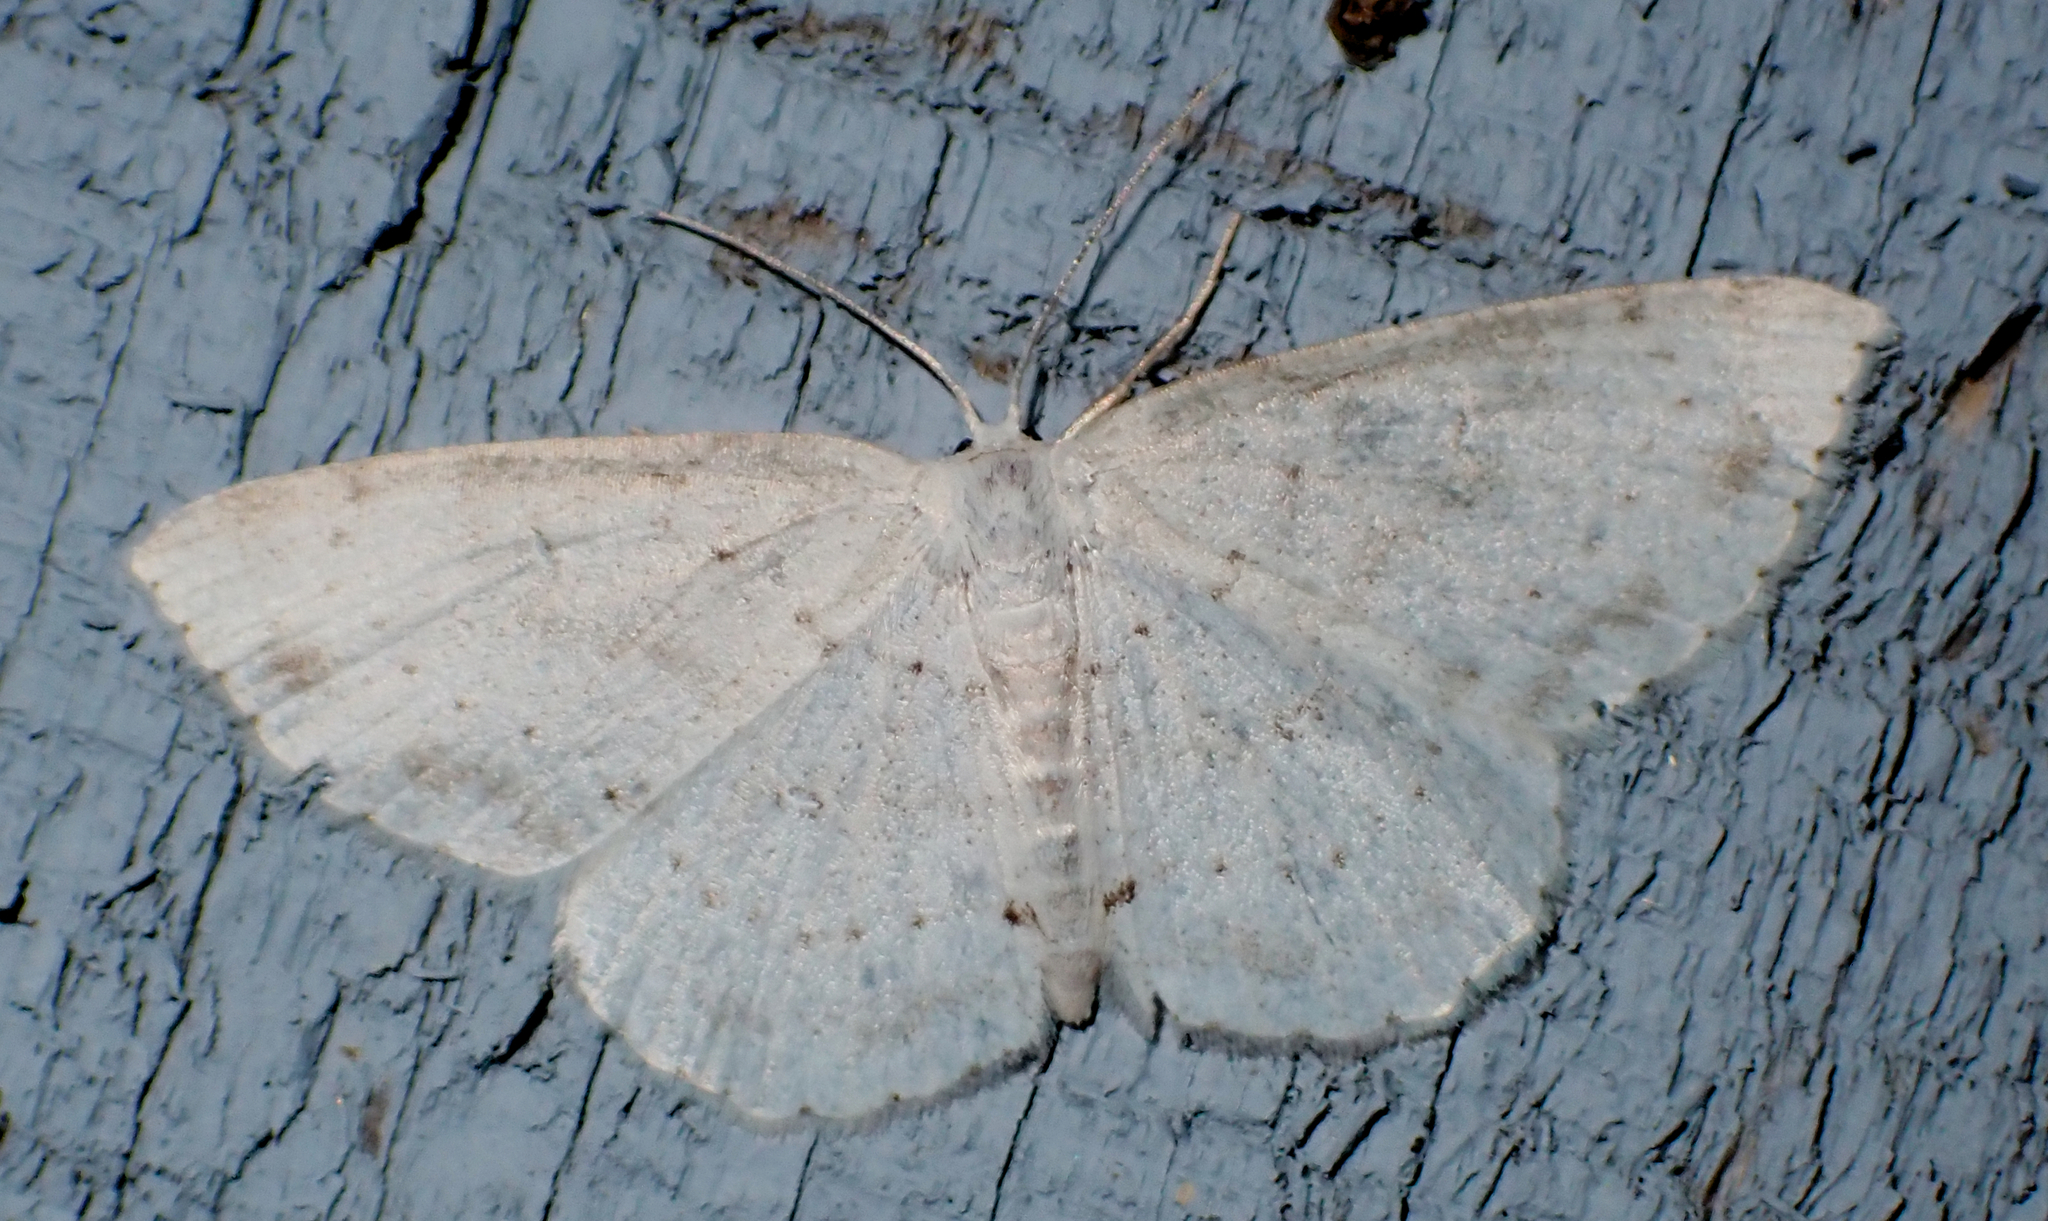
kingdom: Animalia
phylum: Arthropoda
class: Insecta
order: Lepidoptera
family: Geometridae
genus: Cyclophora
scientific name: Cyclophora pendulinaria
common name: Sweet fern geometer
